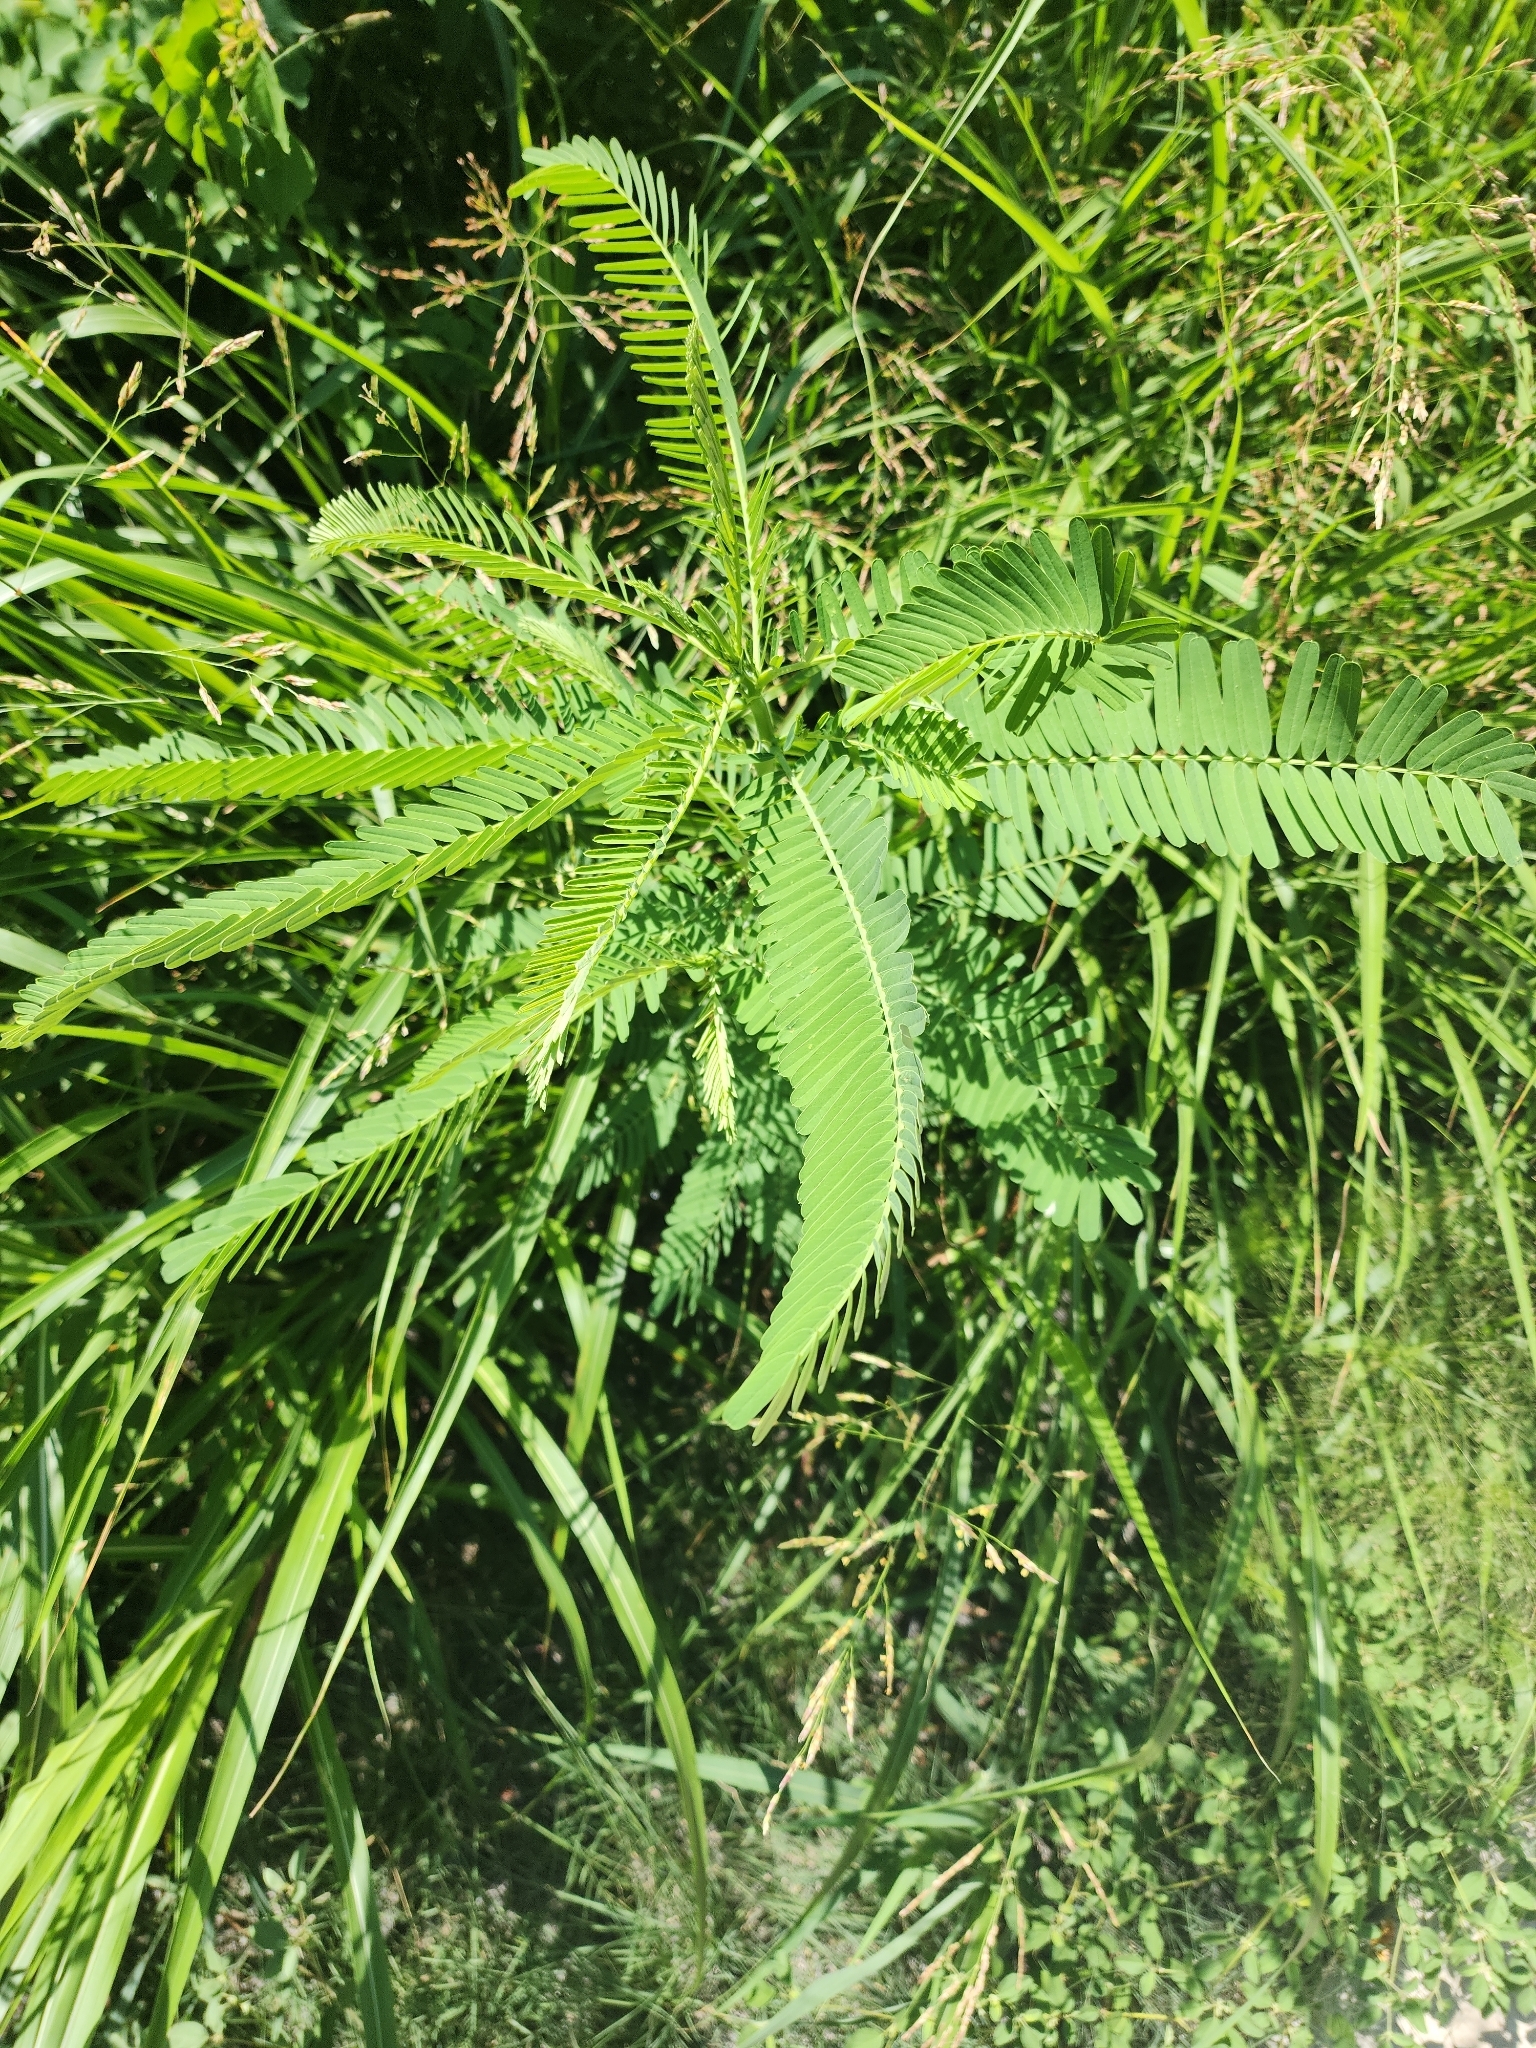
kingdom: Plantae
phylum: Tracheophyta
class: Magnoliopsida
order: Fabales
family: Fabaceae
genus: Sesbania
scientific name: Sesbania herbacea
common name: Bigpod sesbania
